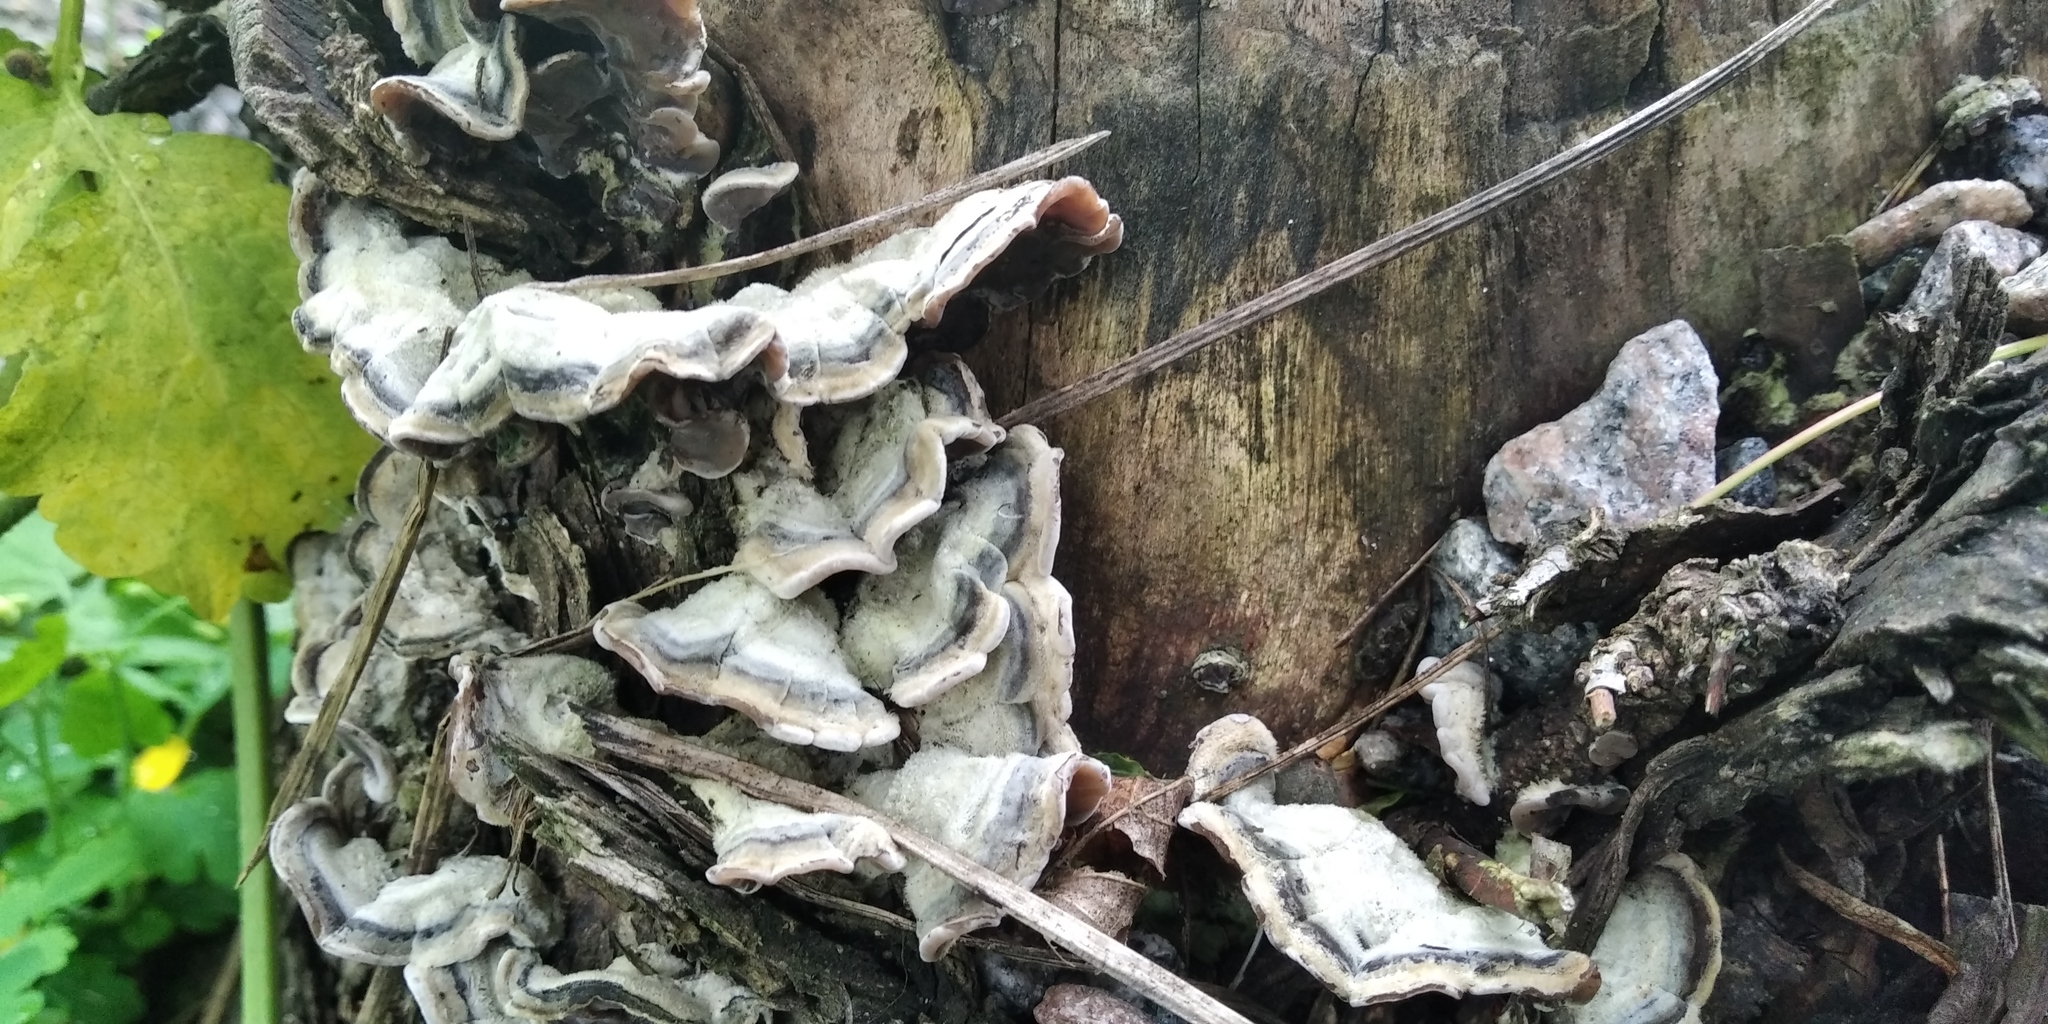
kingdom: Fungi
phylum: Basidiomycota
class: Agaricomycetes
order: Auriculariales
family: Auriculariaceae
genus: Auricularia
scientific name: Auricularia mesenterica
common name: Tripe fungus
